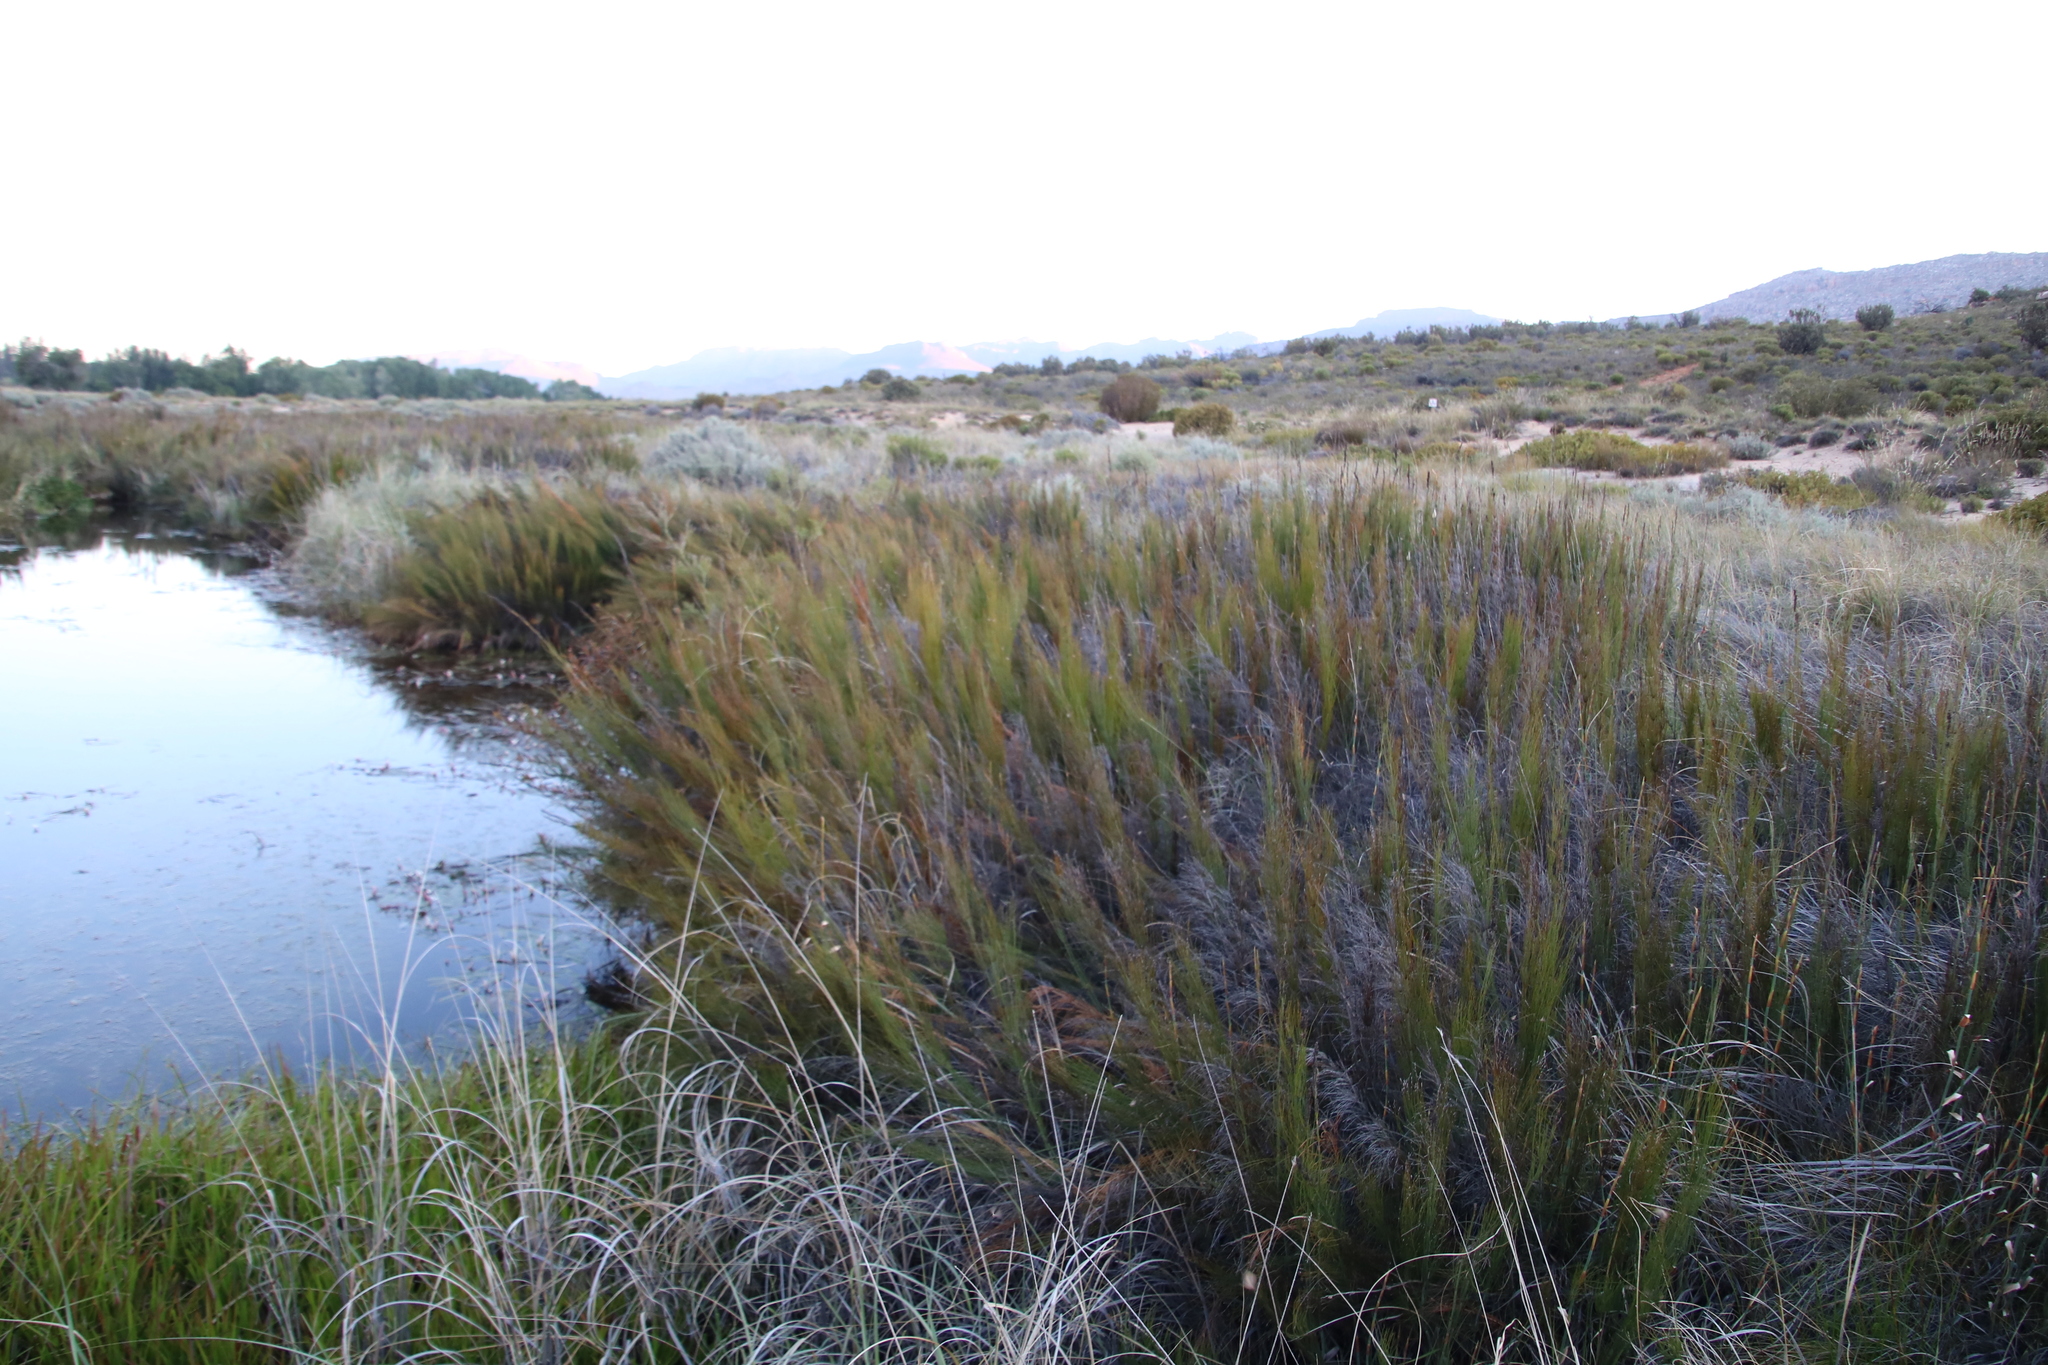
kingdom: Plantae
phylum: Tracheophyta
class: Liliopsida
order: Poales
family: Restionaceae
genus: Elegia
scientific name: Elegia capensis
